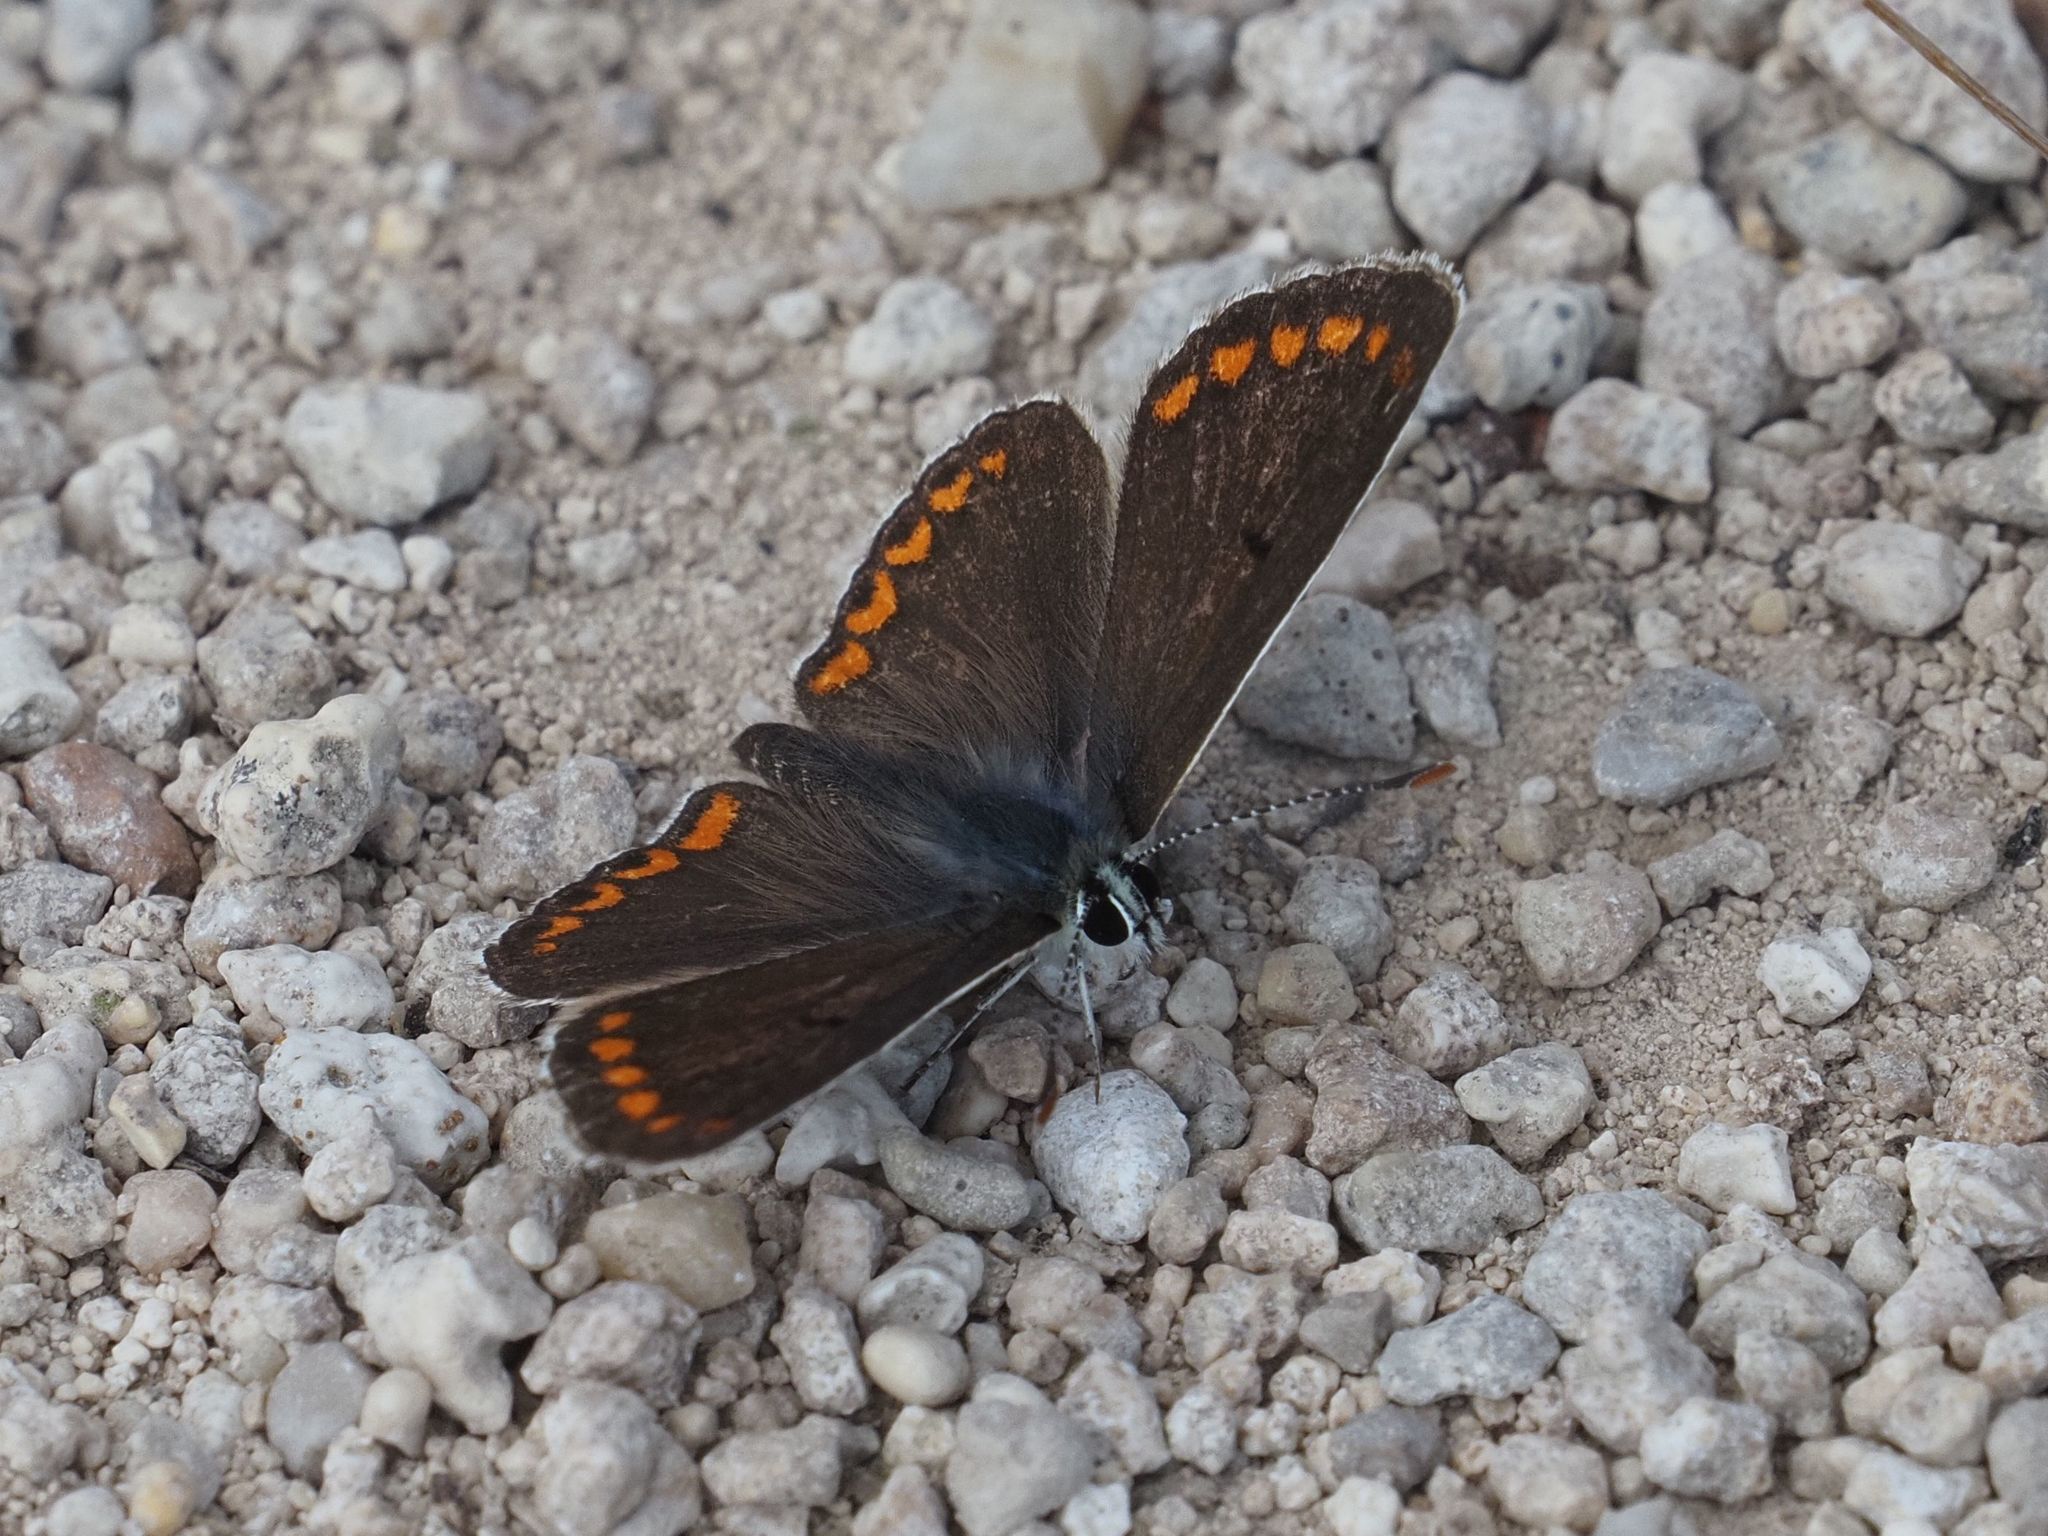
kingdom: Animalia
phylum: Arthropoda
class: Insecta
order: Lepidoptera
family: Lycaenidae
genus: Aricia
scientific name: Aricia agestis
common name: Brown argus
